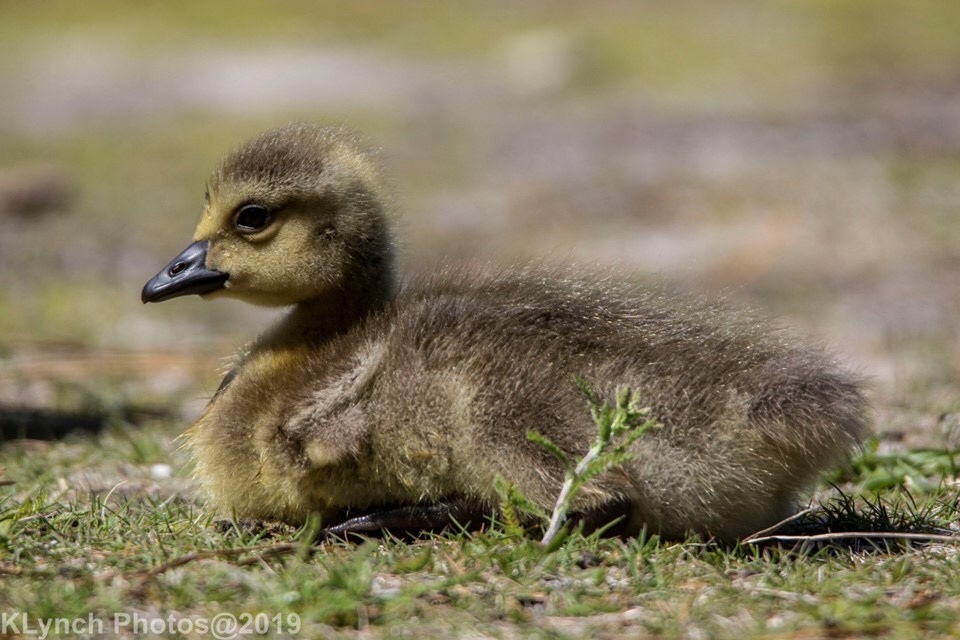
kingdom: Animalia
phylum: Chordata
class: Aves
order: Anseriformes
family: Anatidae
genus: Branta
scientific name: Branta canadensis
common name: Canada goose
